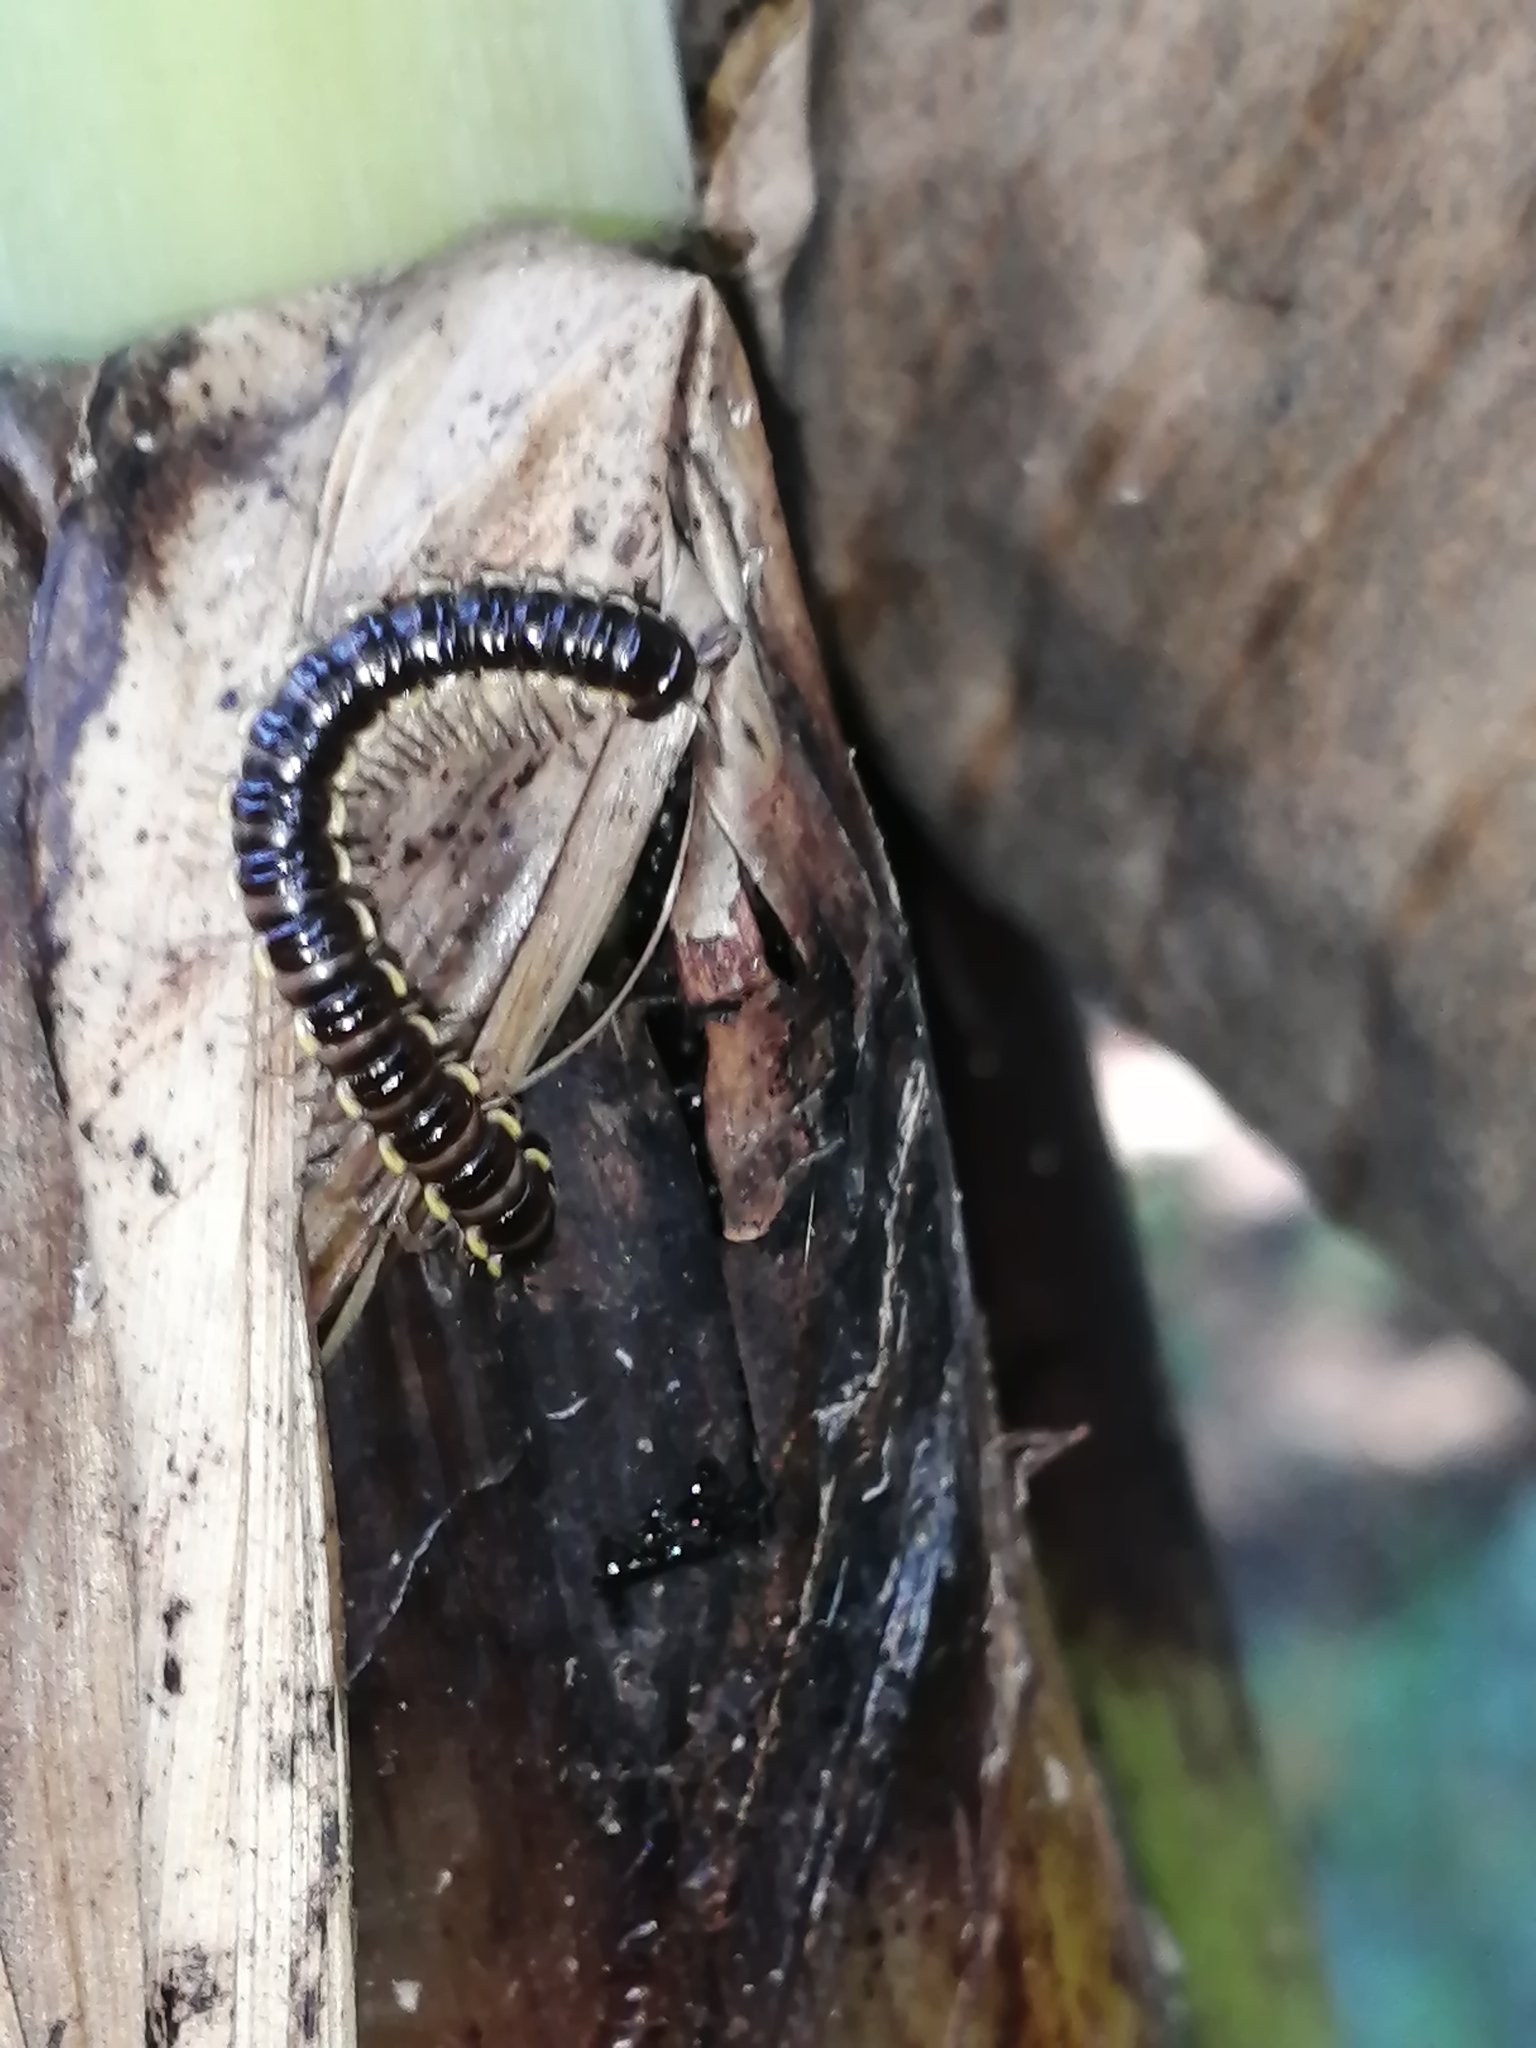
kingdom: Animalia
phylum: Arthropoda
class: Diplopoda
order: Polydesmida
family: Paradoxosomatidae
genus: Orthomorpha
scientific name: Orthomorpha coarctata
